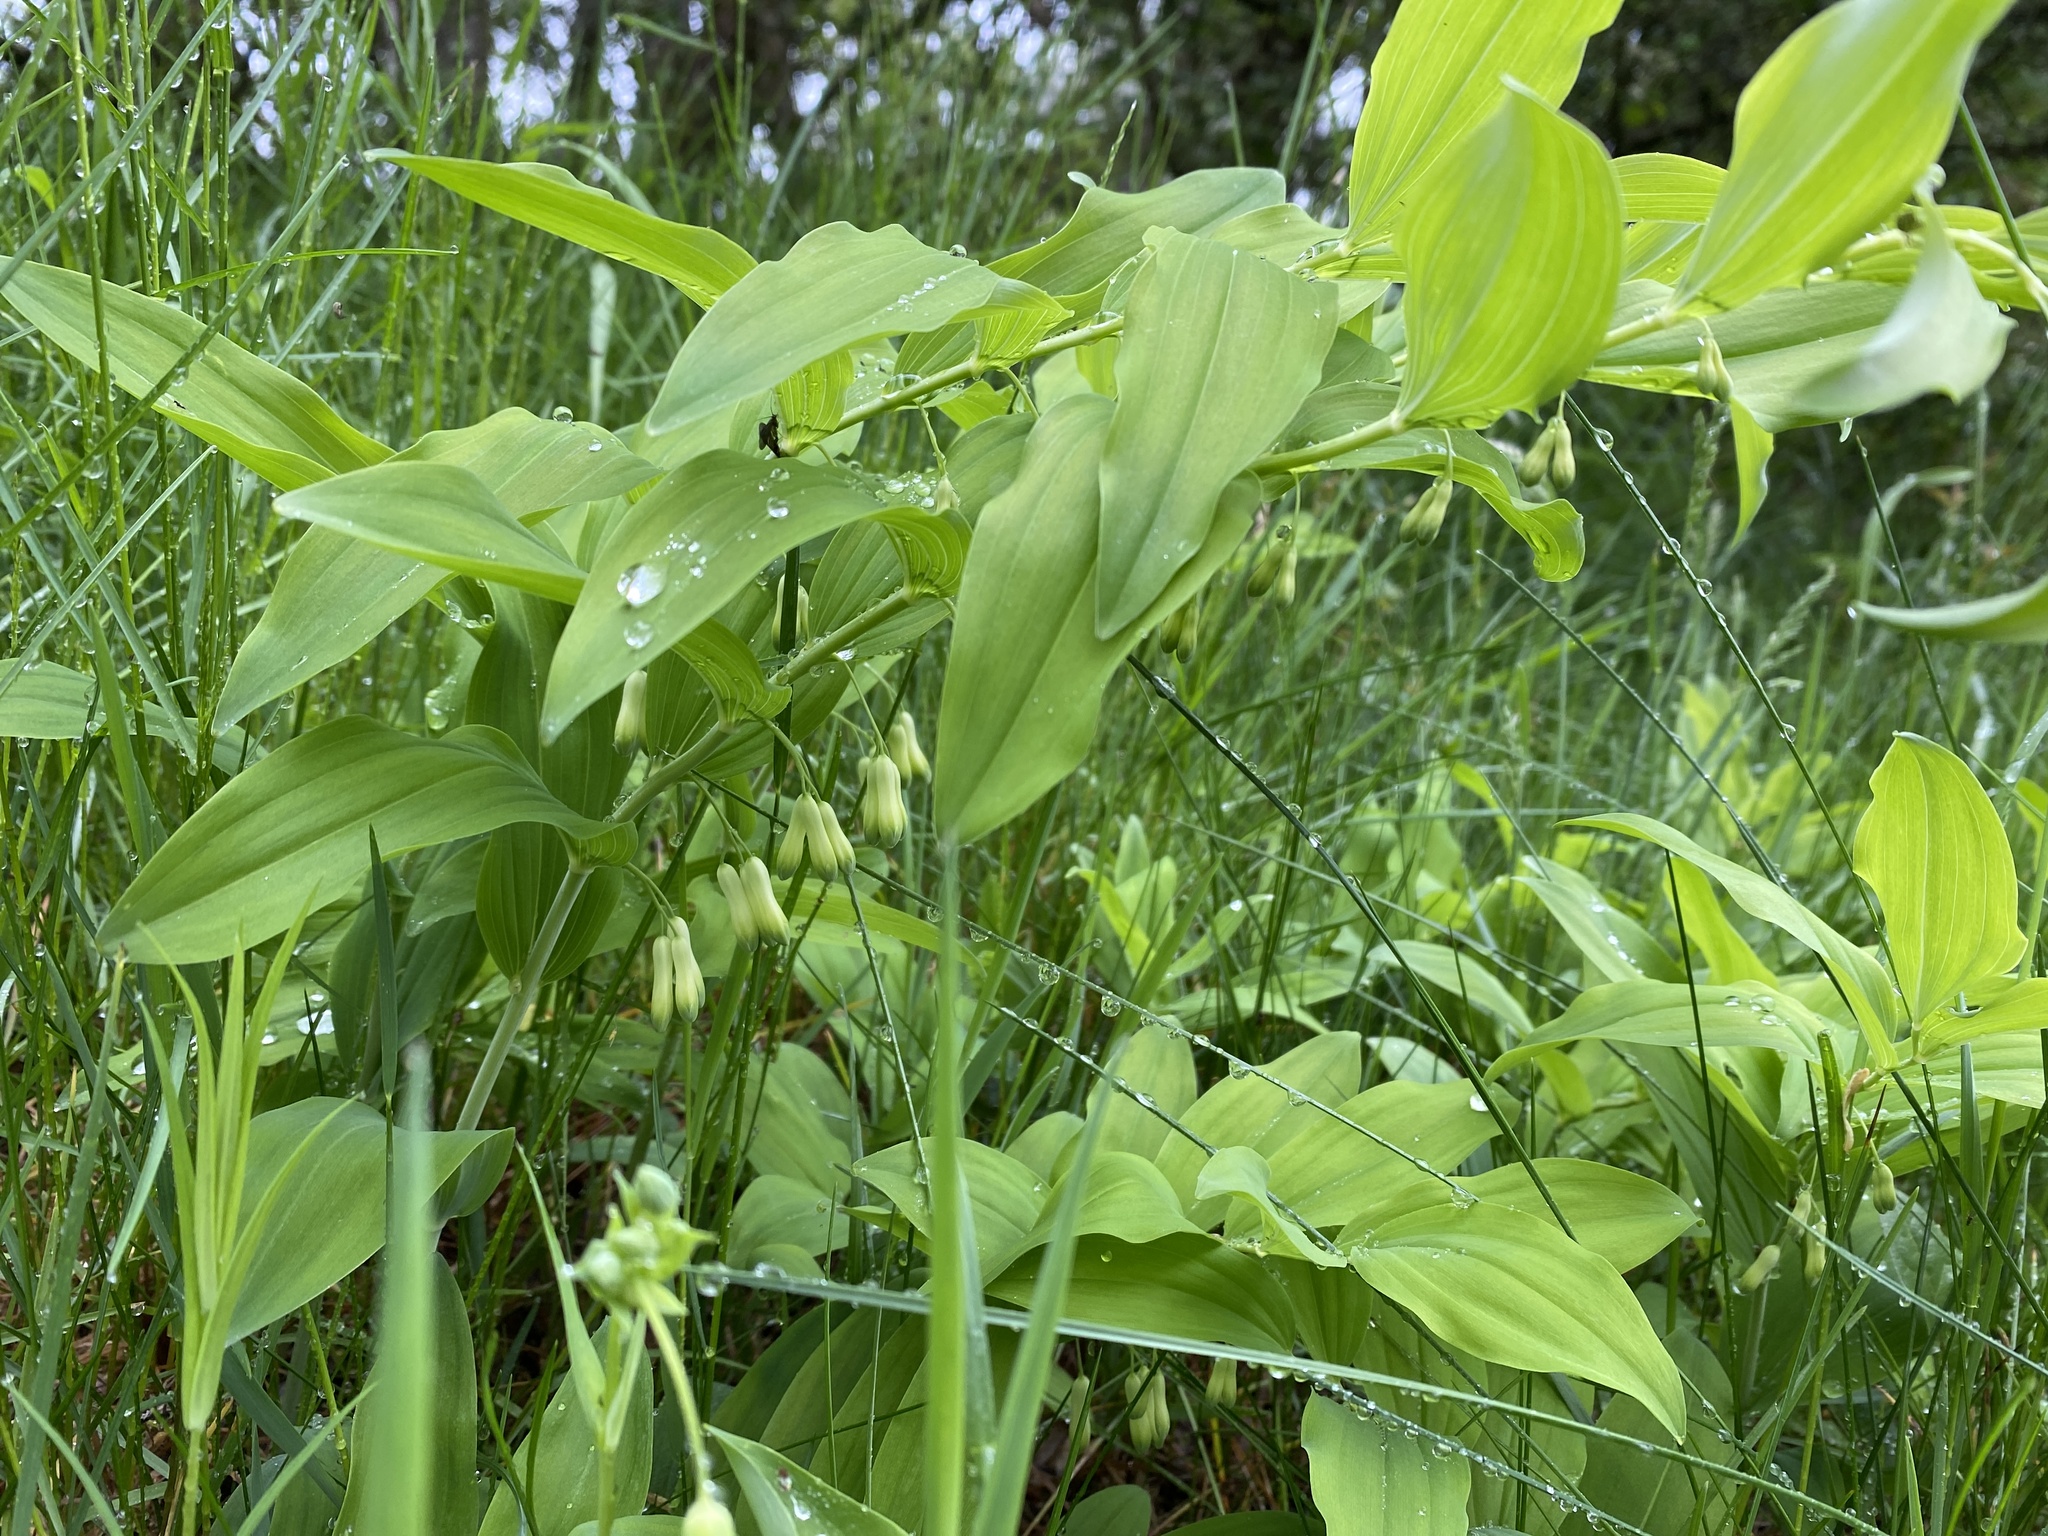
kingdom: Plantae
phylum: Tracheophyta
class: Liliopsida
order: Asparagales
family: Asparagaceae
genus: Polygonatum
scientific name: Polygonatum multiflorum
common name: Solomon's-seal
